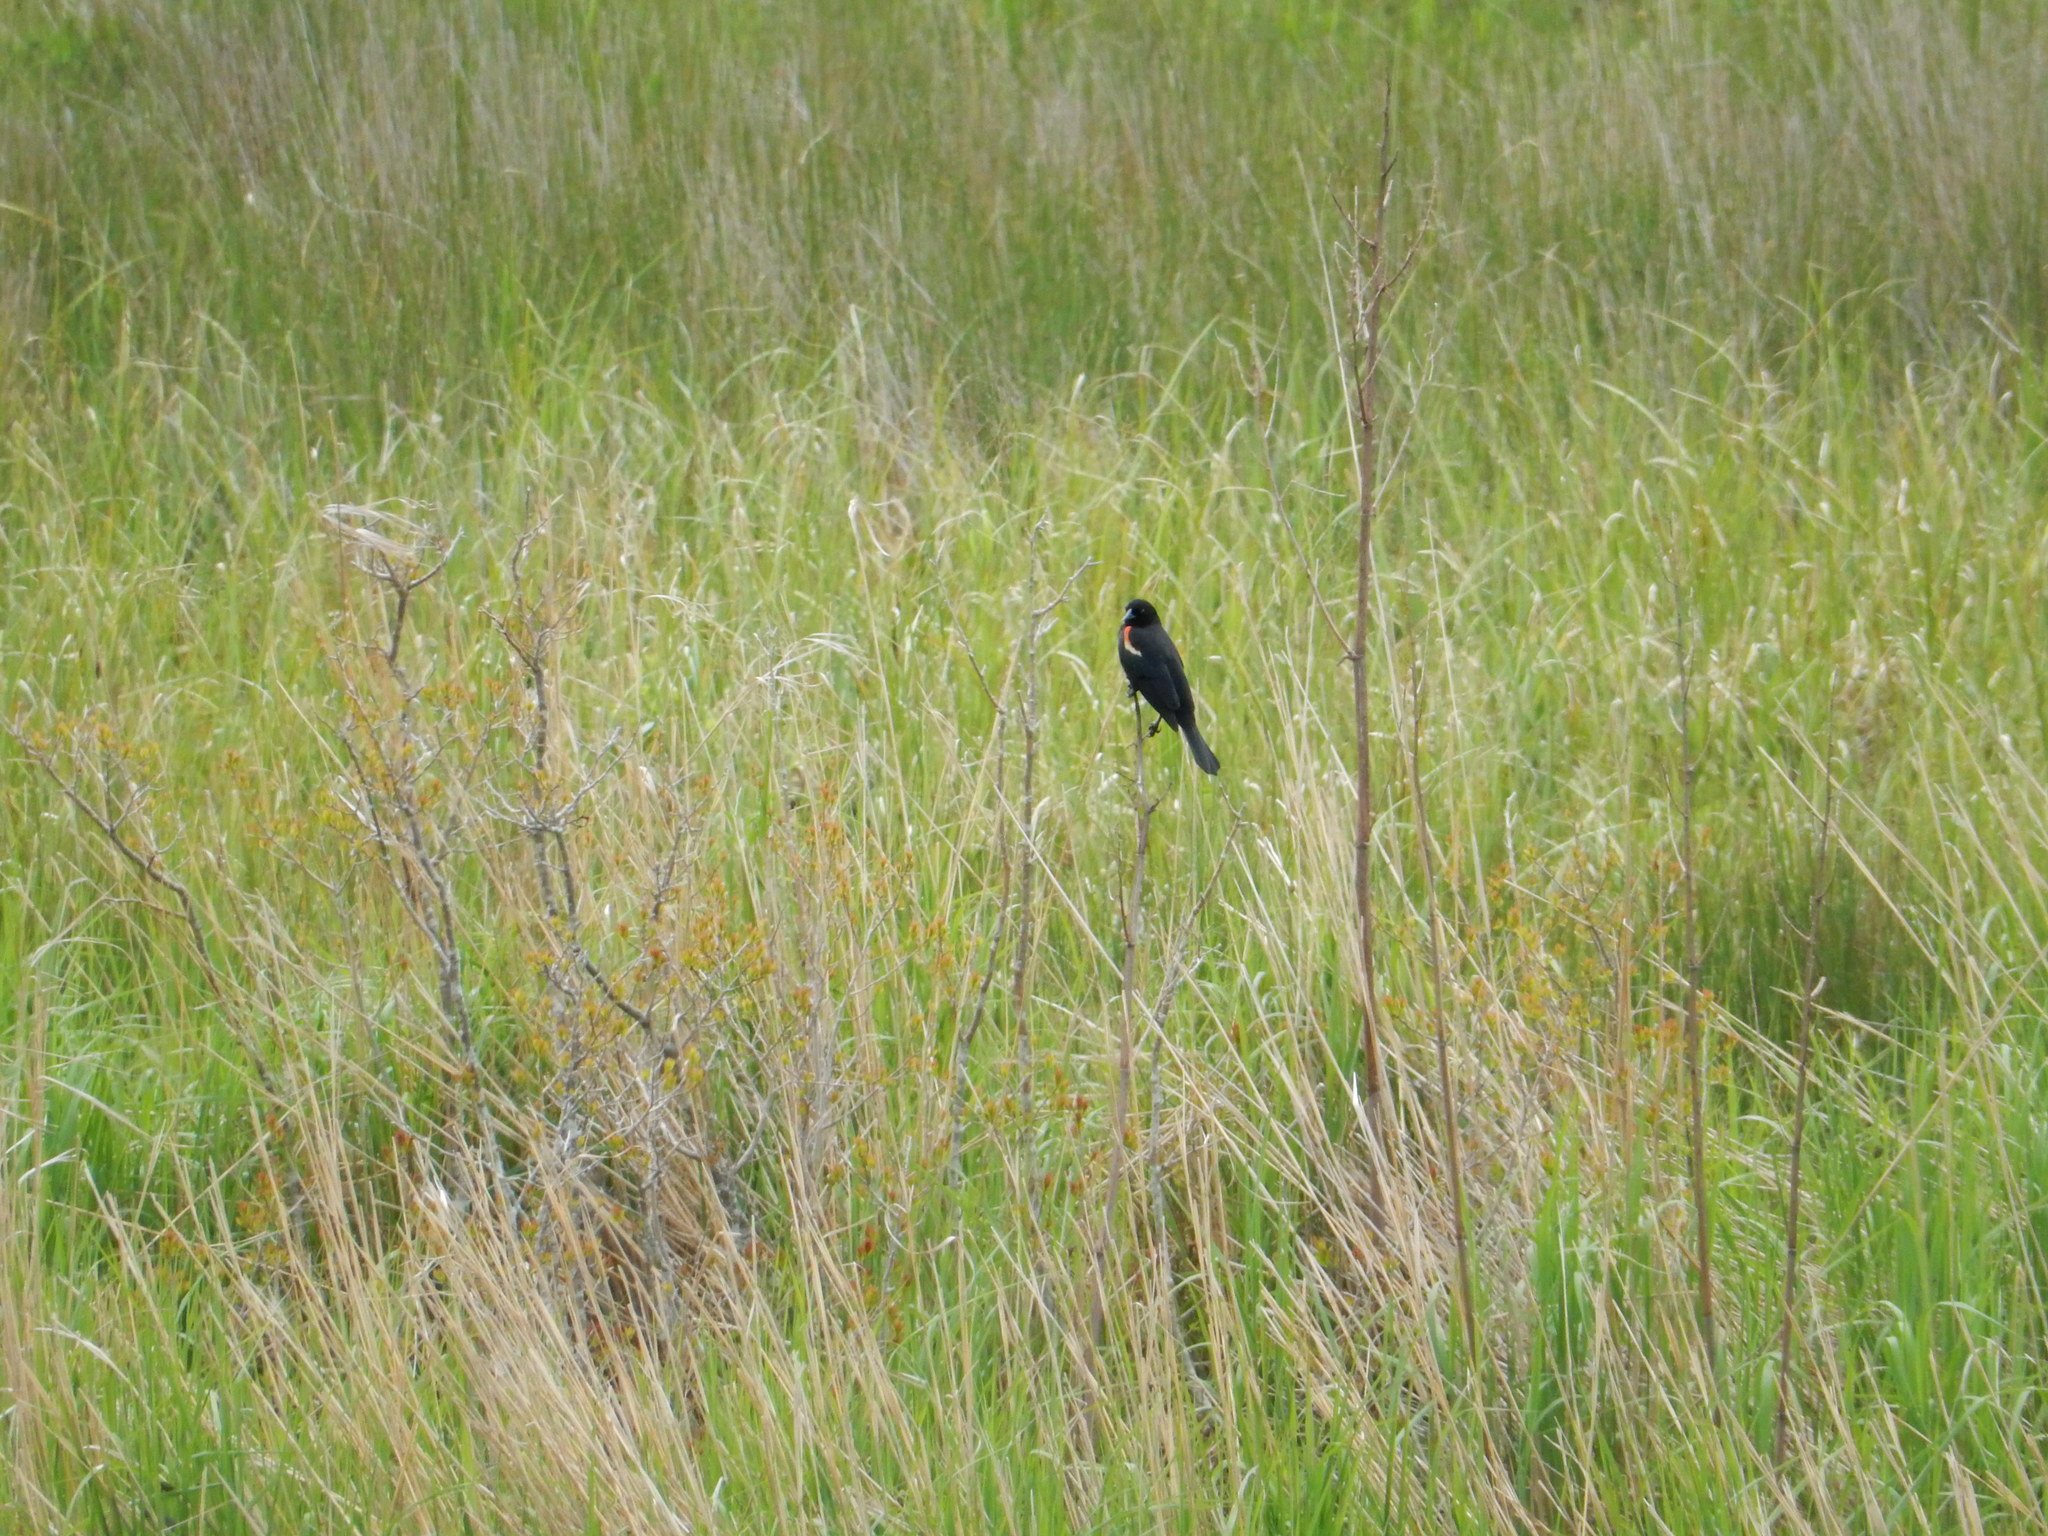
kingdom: Animalia
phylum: Chordata
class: Aves
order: Passeriformes
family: Icteridae
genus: Agelaius
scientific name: Agelaius phoeniceus
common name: Red-winged blackbird
